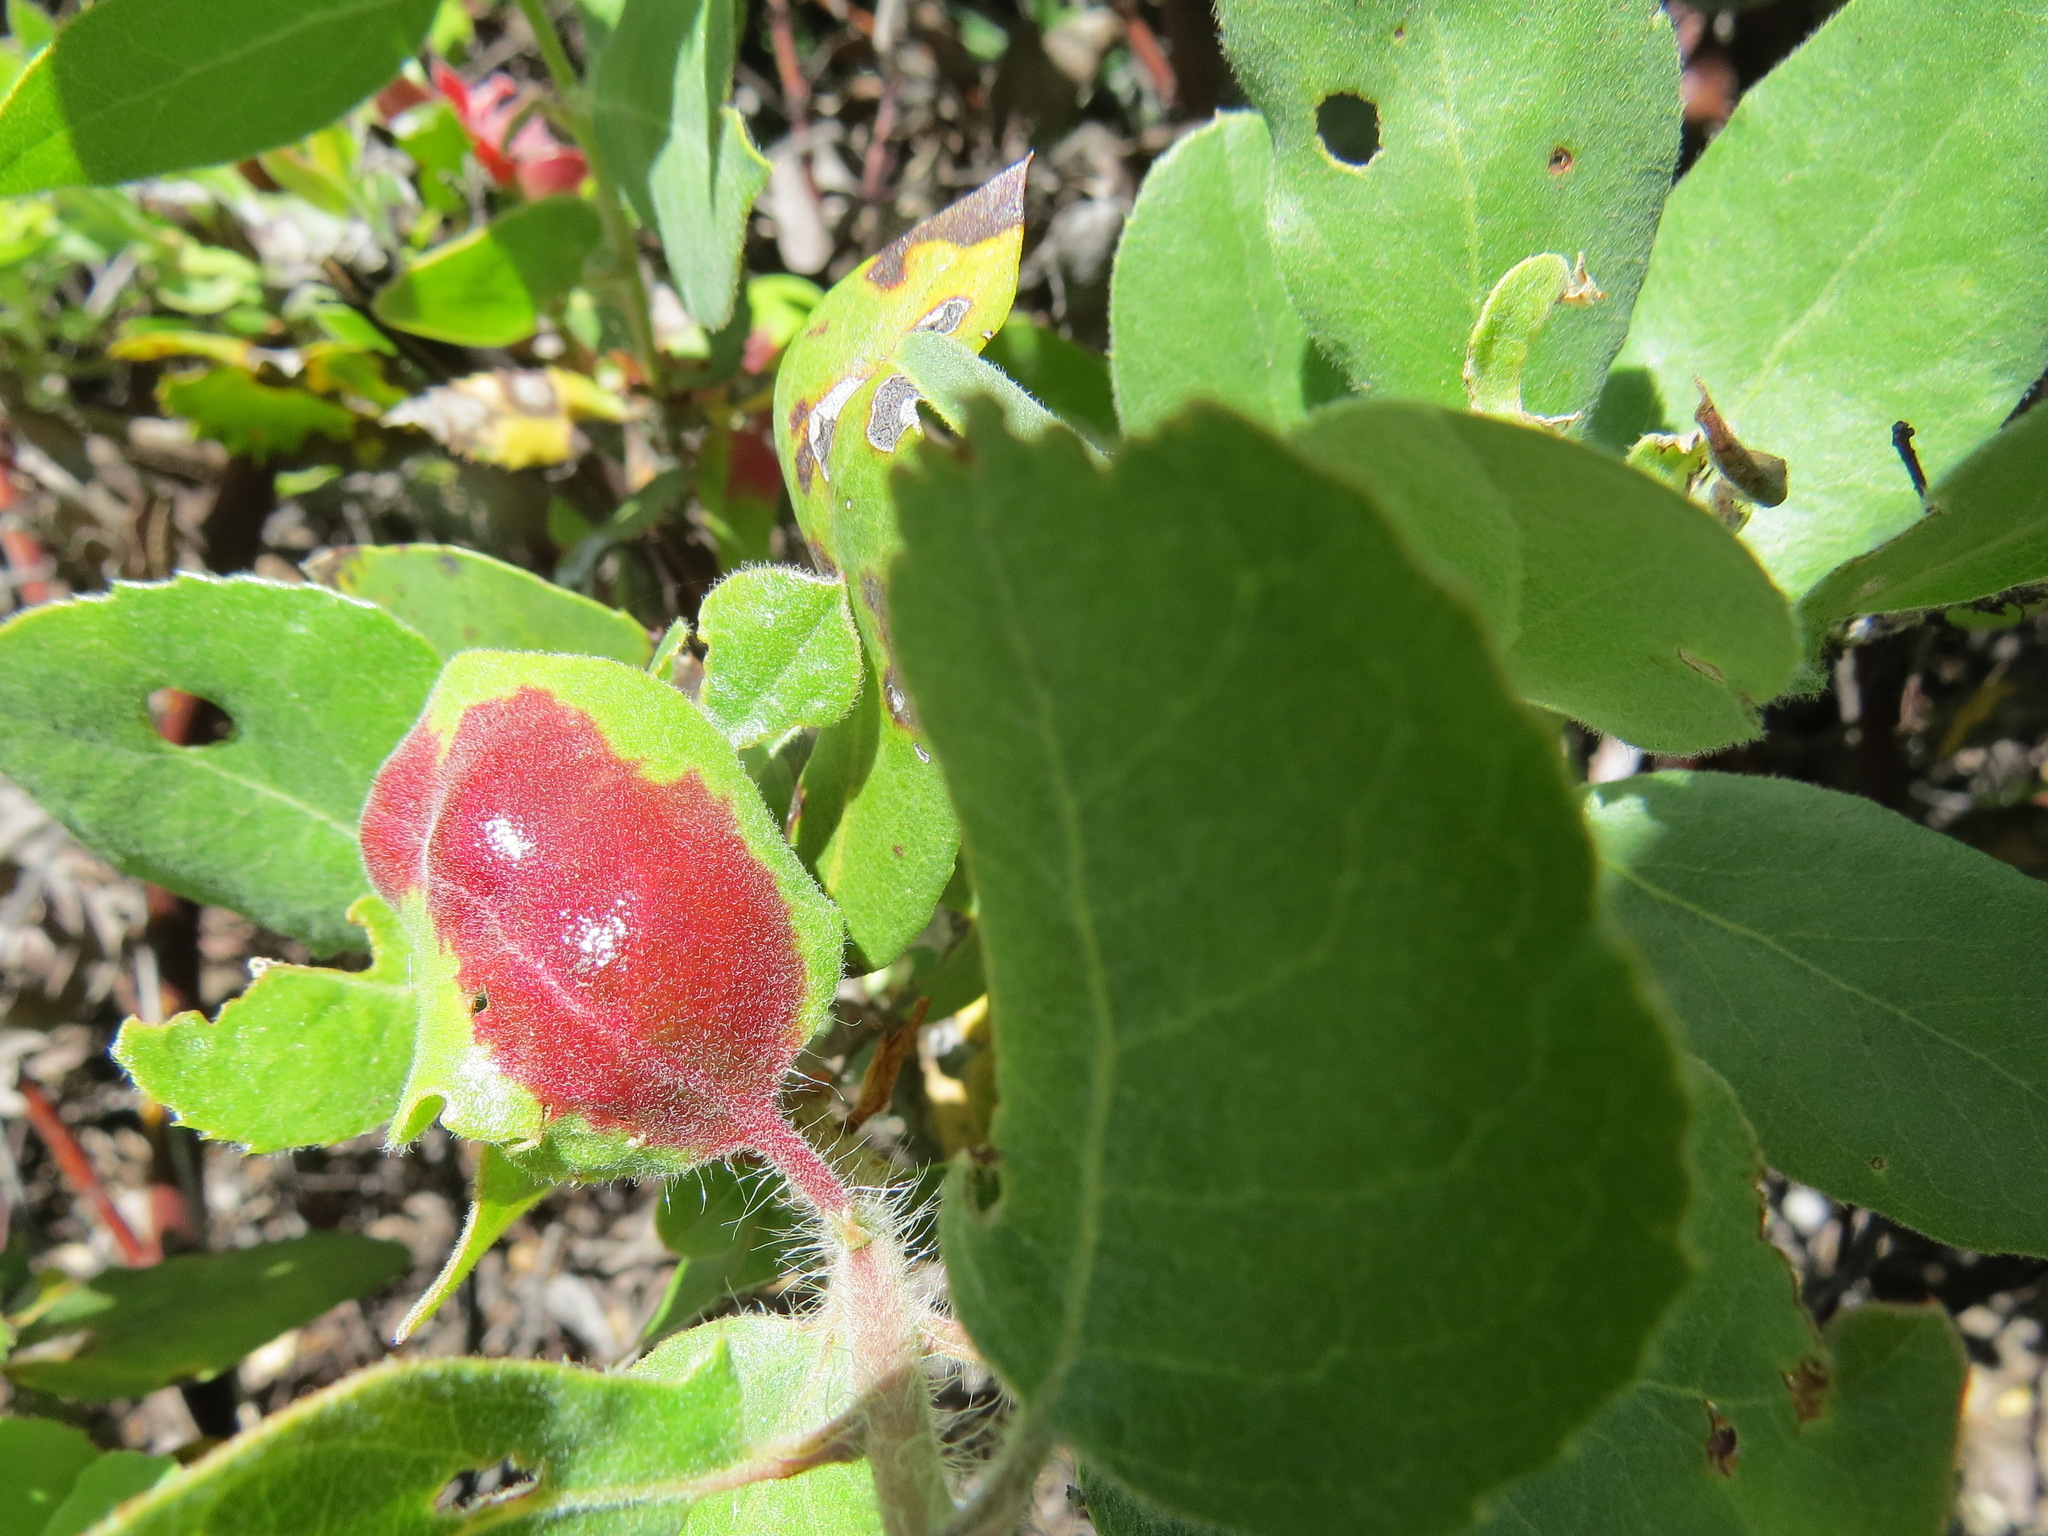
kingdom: Fungi
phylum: Basidiomycota
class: Exobasidiomycetes
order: Exobasidiales
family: Exobasidiaceae
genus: Exobasidium
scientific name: Exobasidium arctostaphyli
